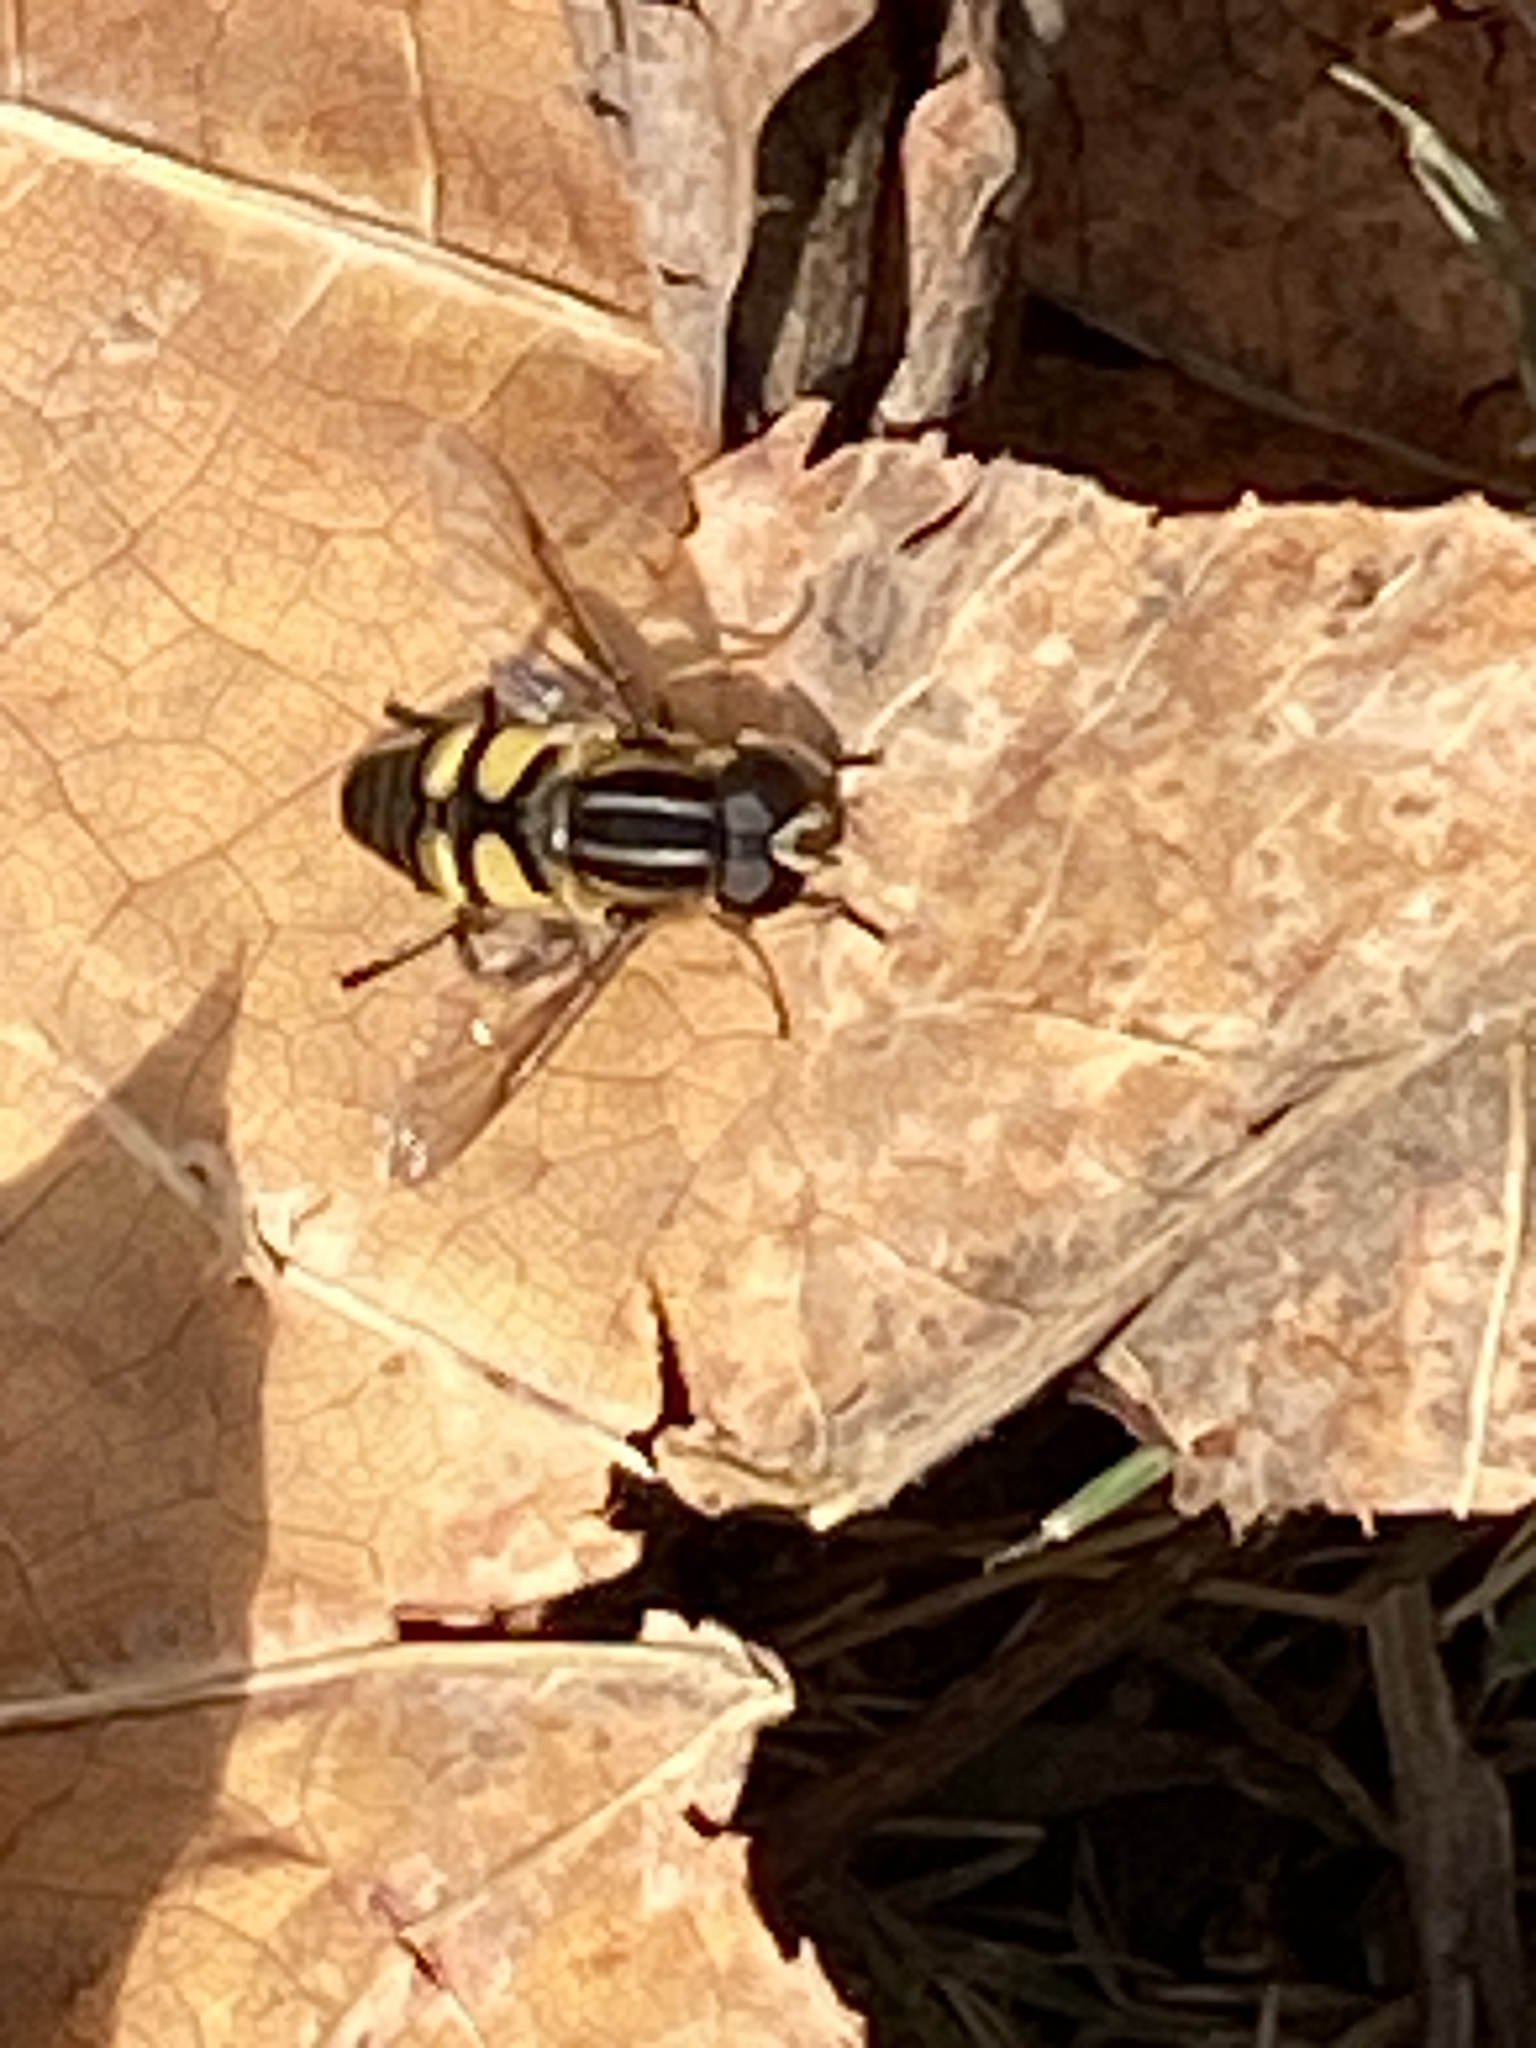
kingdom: Animalia
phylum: Arthropoda
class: Insecta
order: Diptera
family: Syrphidae
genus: Helophilus
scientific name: Helophilus fasciatus
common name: Narrow-headed marsh fly
